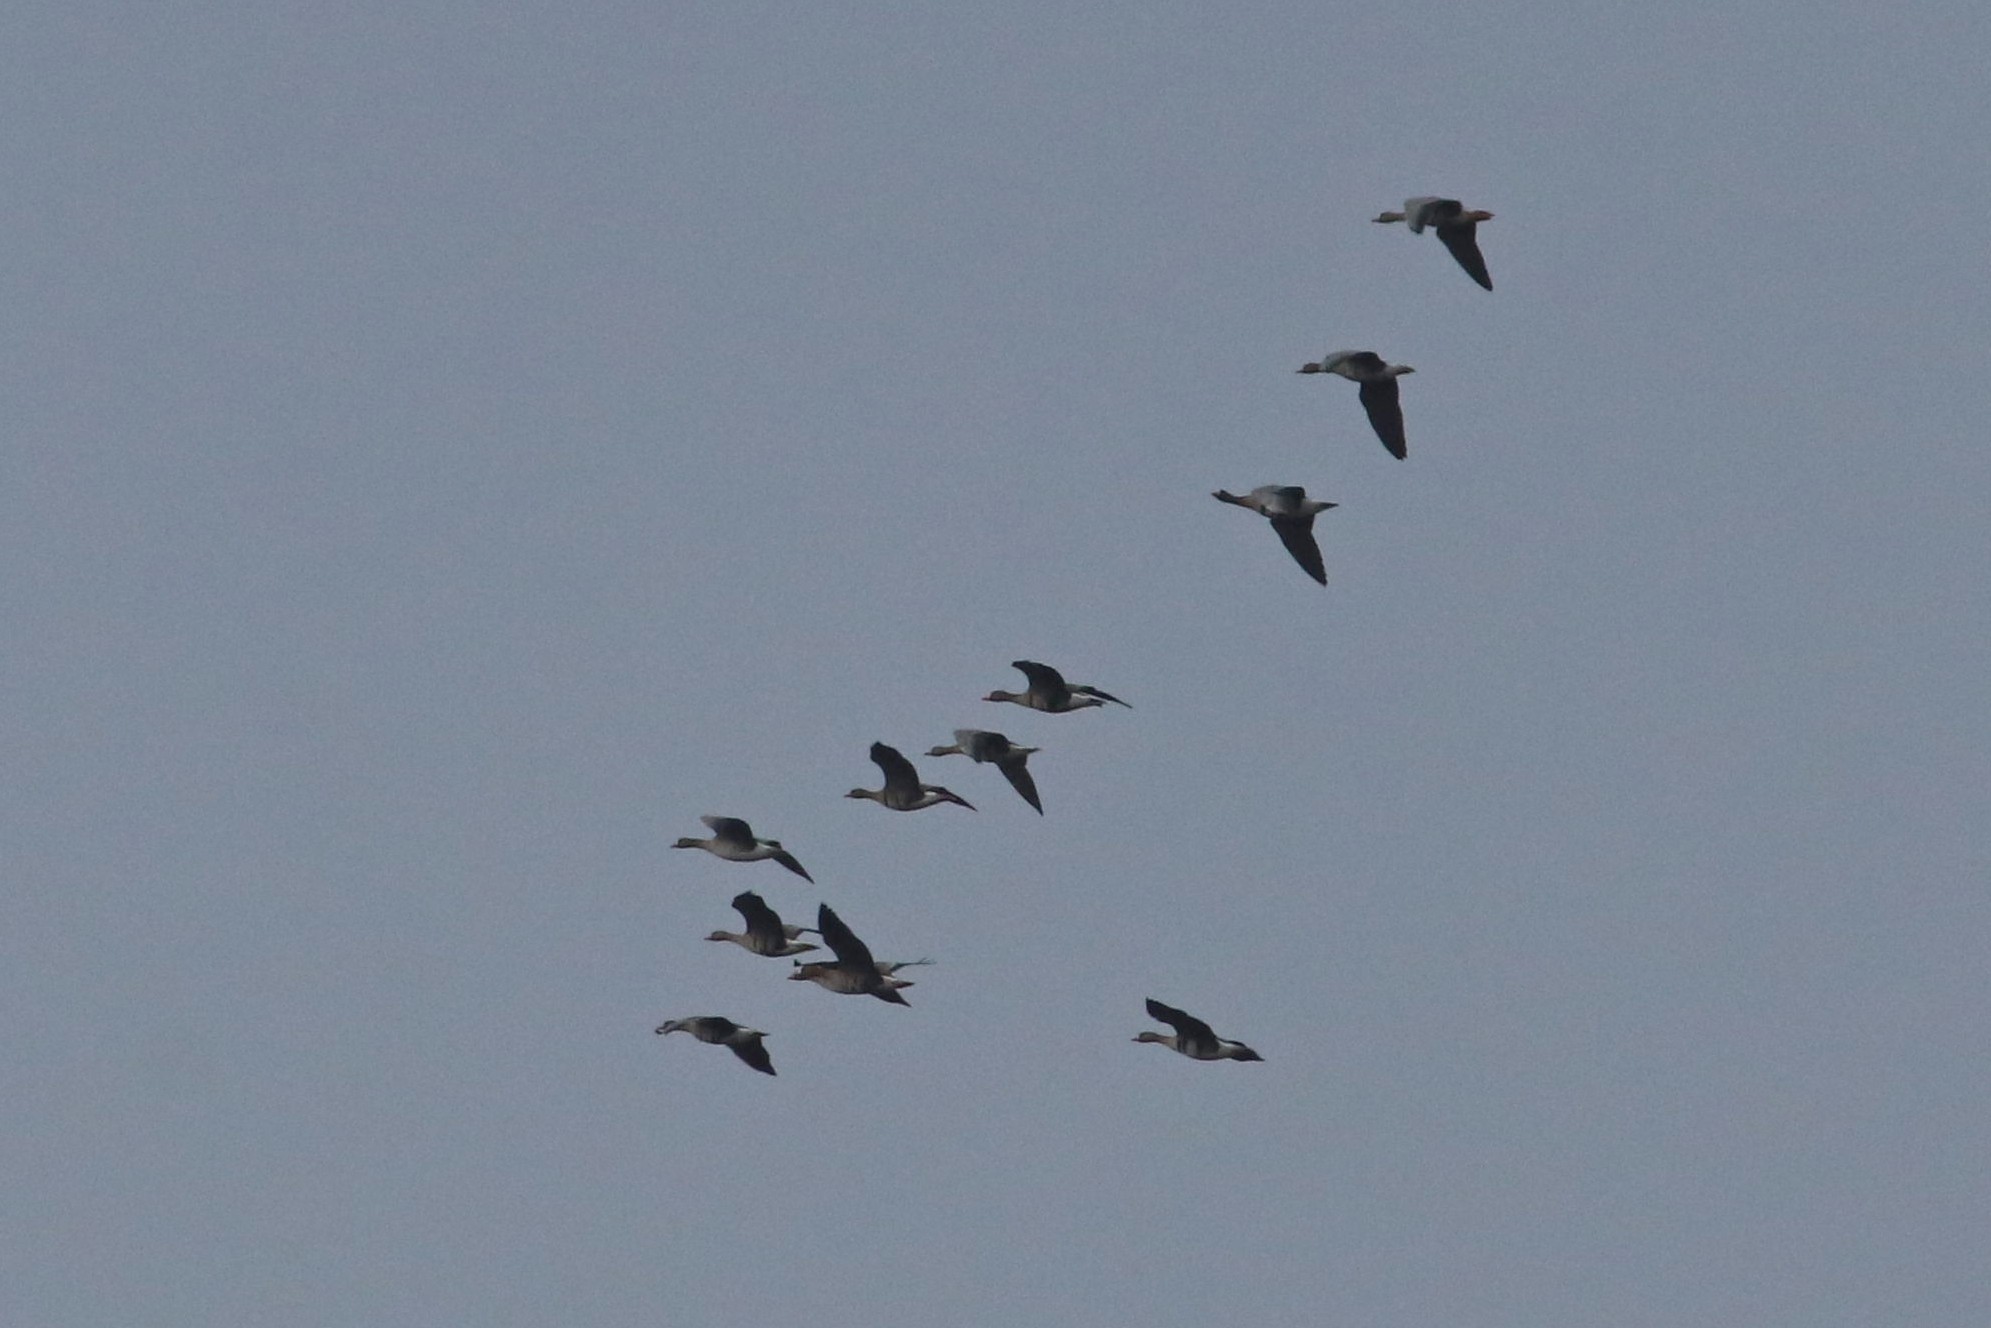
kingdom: Animalia
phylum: Chordata
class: Aves
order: Anseriformes
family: Anatidae
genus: Anser
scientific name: Anser albifrons
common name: Greater white-fronted goose
